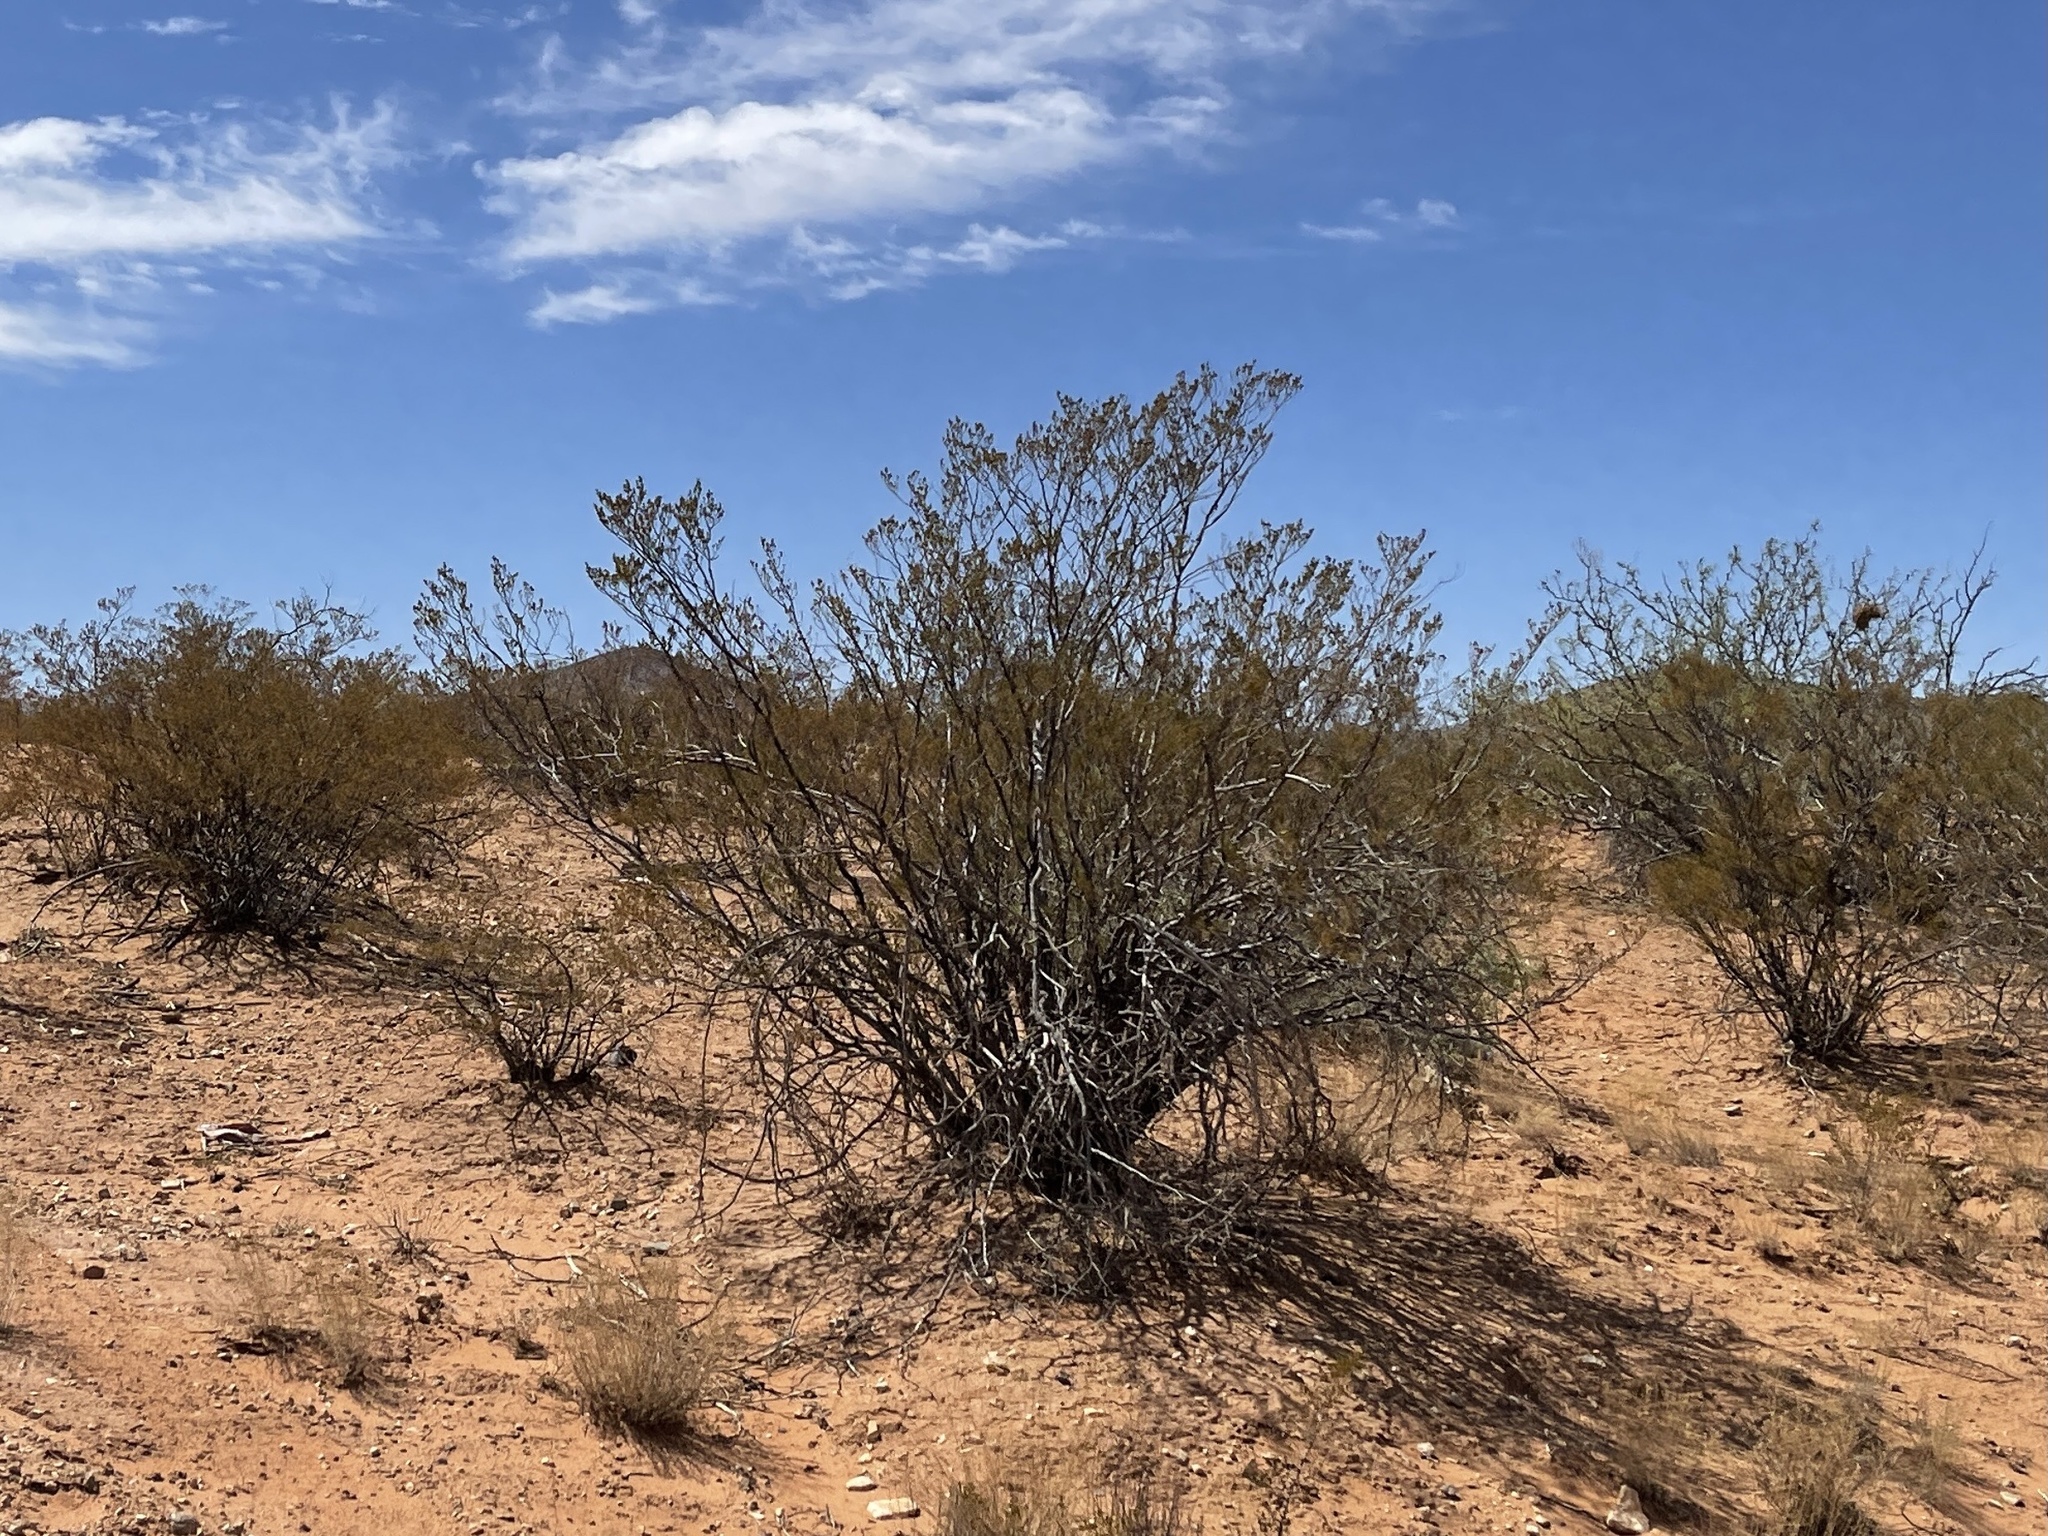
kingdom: Plantae
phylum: Tracheophyta
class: Magnoliopsida
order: Zygophyllales
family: Zygophyllaceae
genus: Larrea
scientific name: Larrea tridentata
